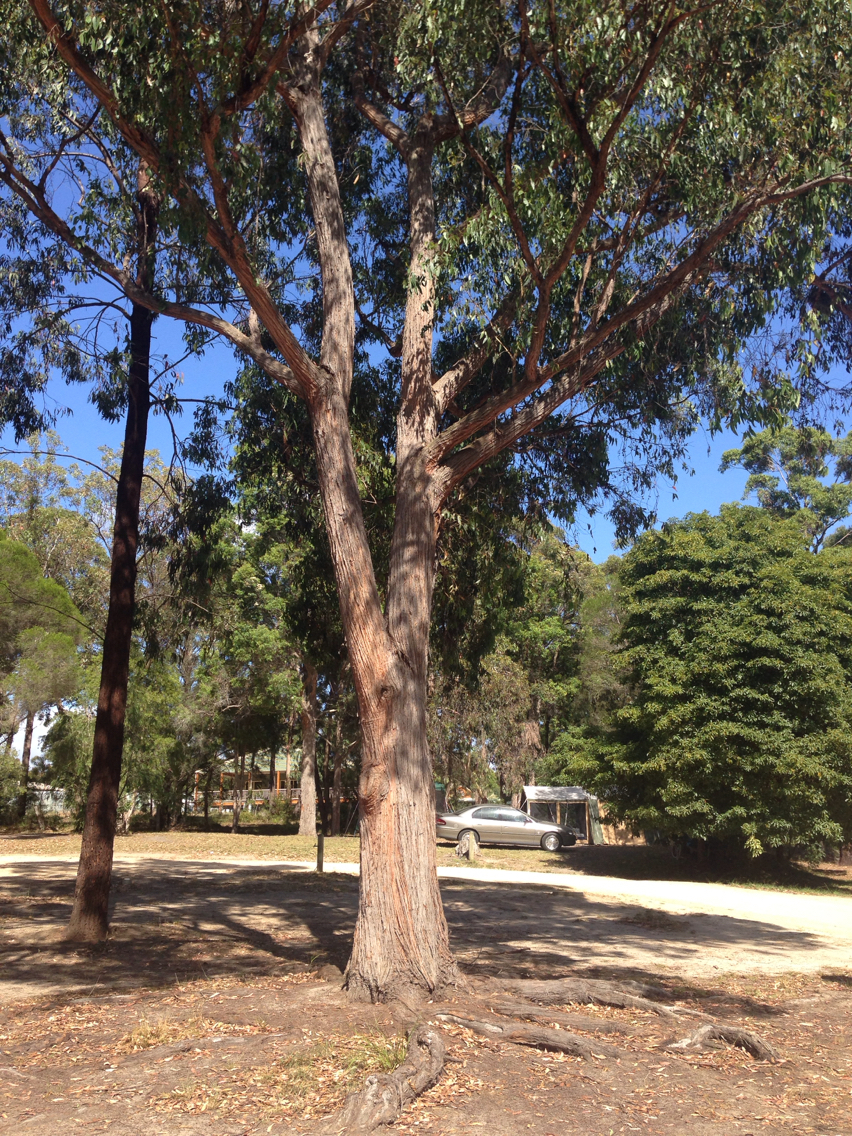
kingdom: Plantae
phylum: Tracheophyta
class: Magnoliopsida
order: Myrtales
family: Myrtaceae
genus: Eucalyptus
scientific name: Eucalyptus globoidea
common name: White-stringybark
